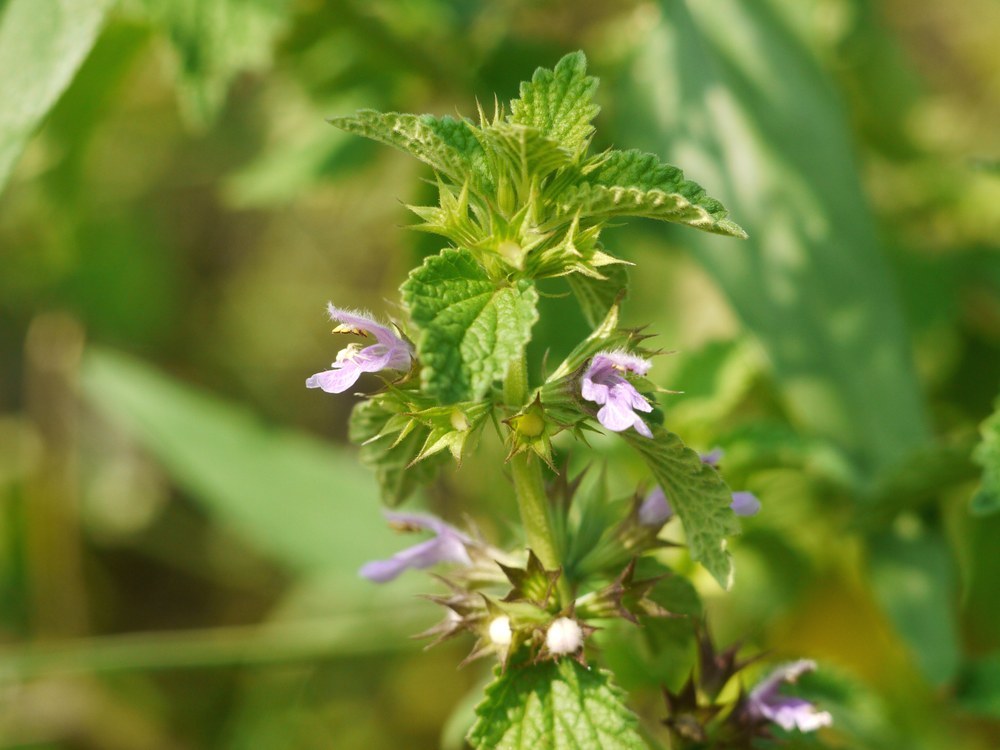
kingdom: Plantae
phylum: Tracheophyta
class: Magnoliopsida
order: Lamiales
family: Lamiaceae
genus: Galeopsis
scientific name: Galeopsis bifida
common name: Bifid hemp-nettle
